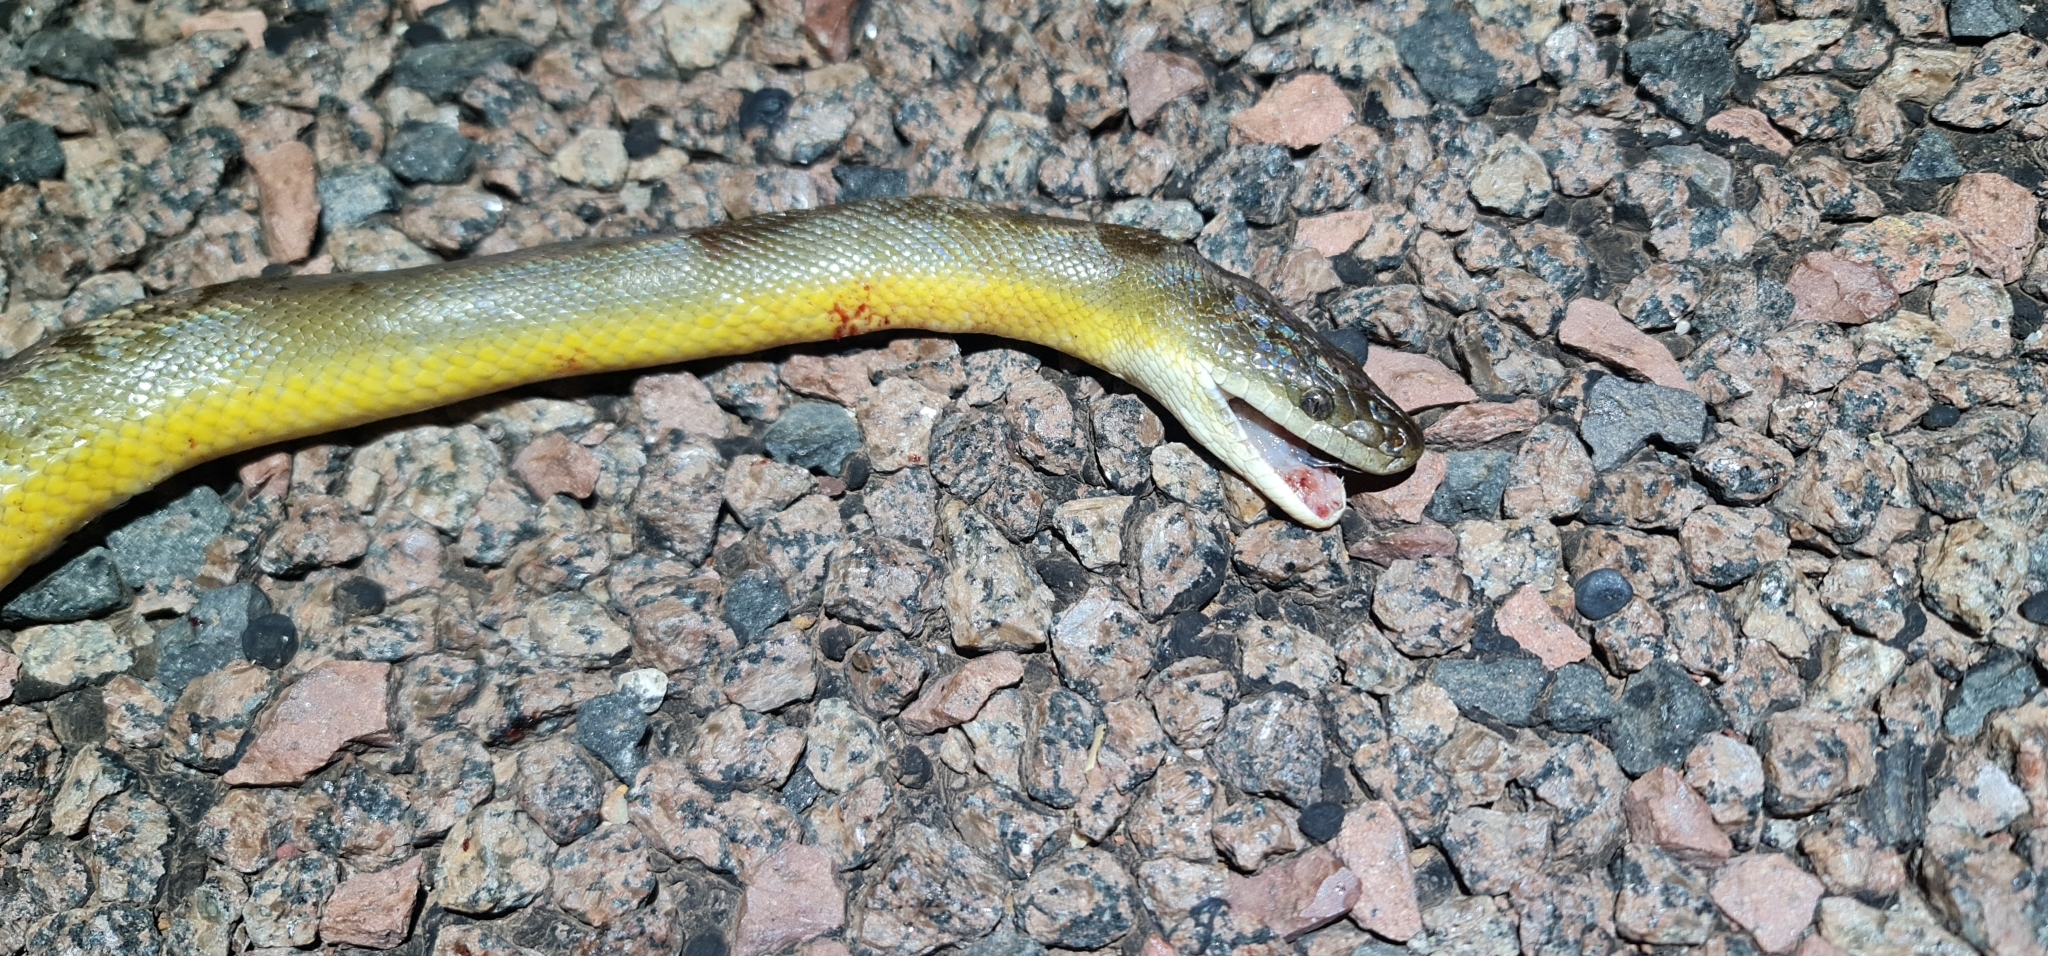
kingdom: Animalia
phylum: Chordata
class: Squamata
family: Pythonidae
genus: Liasis
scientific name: Liasis fuscus
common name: Brown water python
